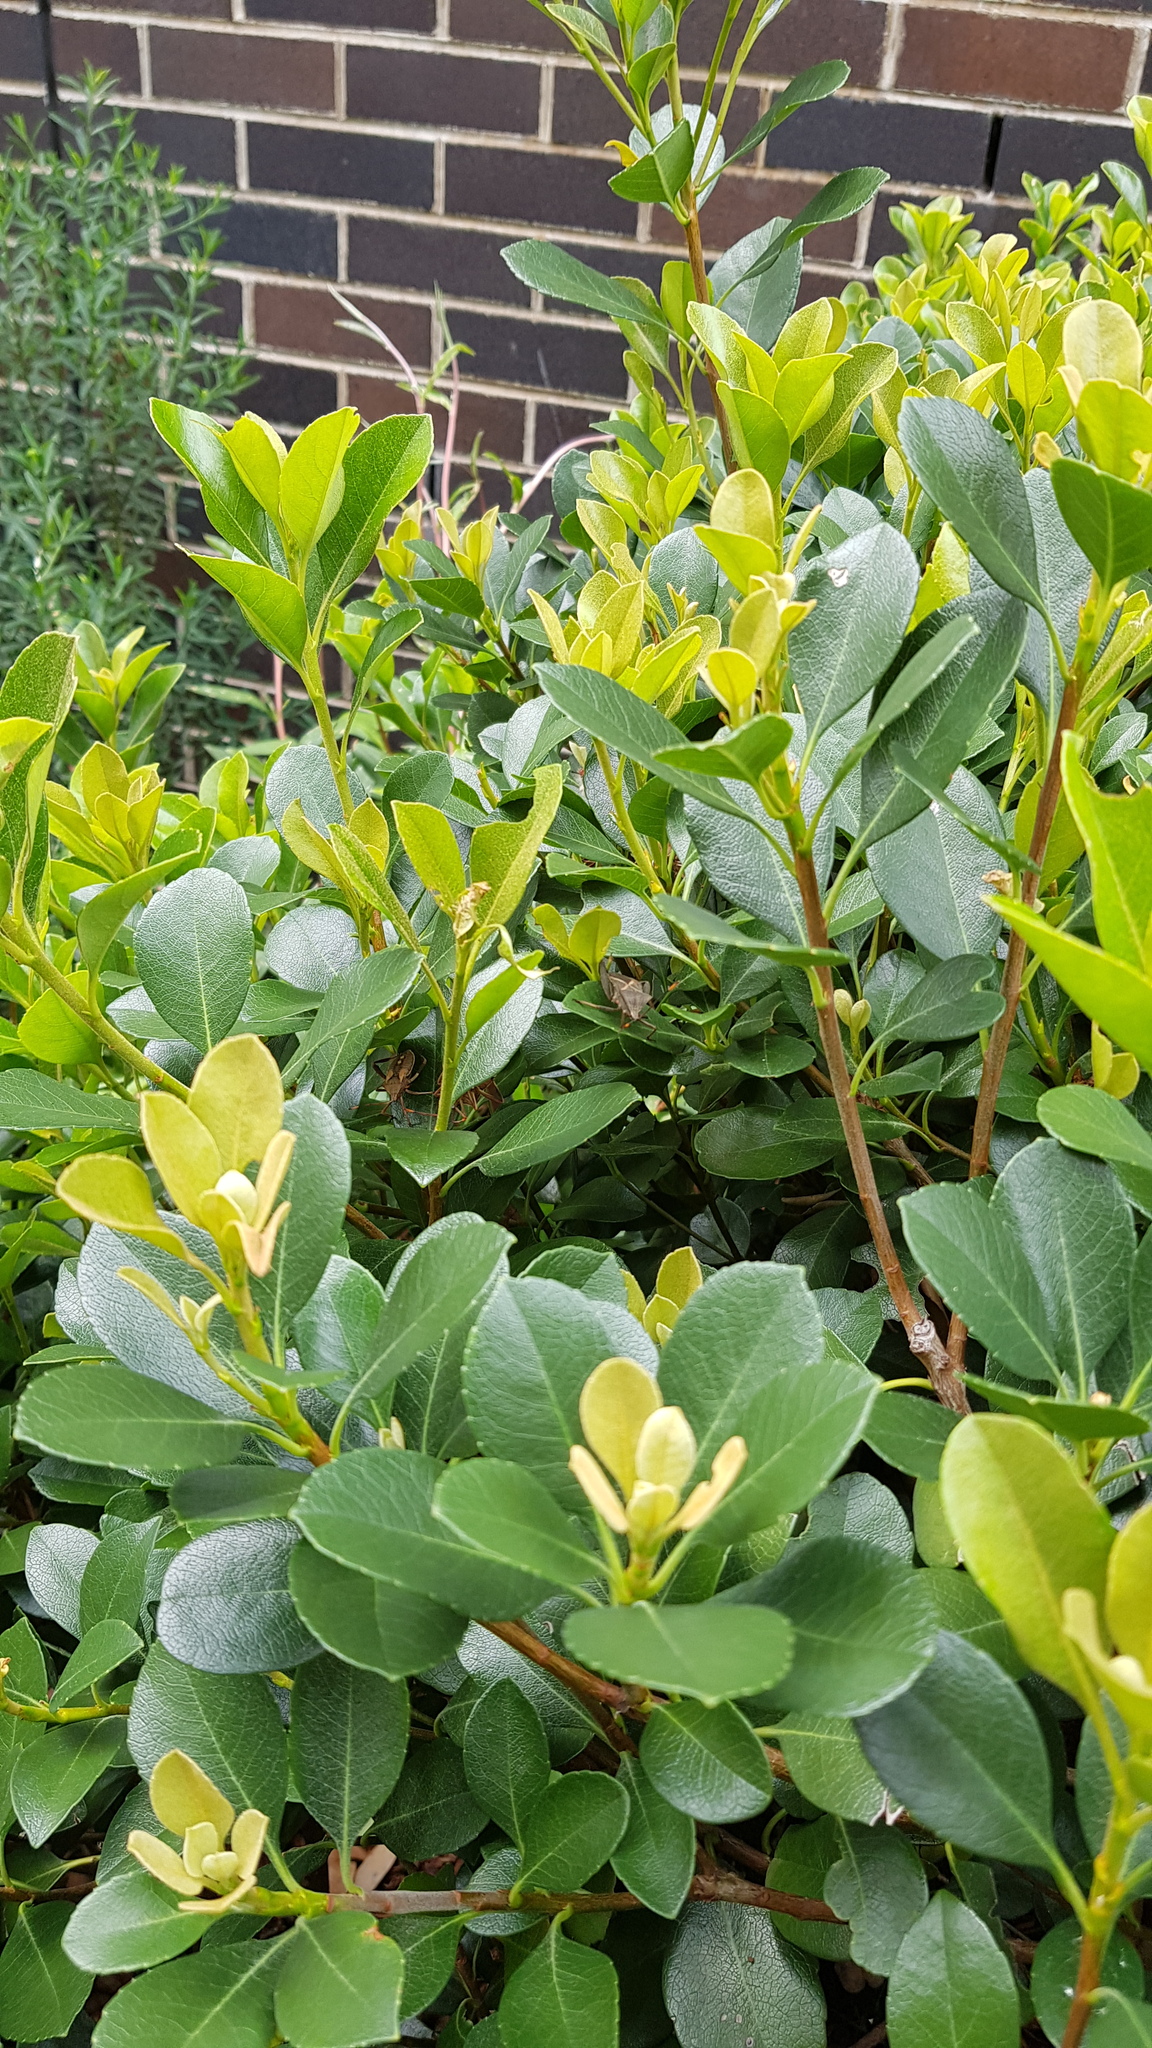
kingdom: Animalia
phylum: Arthropoda
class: Insecta
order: Hemiptera
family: Coreidae
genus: Mictis
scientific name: Mictis profana
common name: Crusader bug
